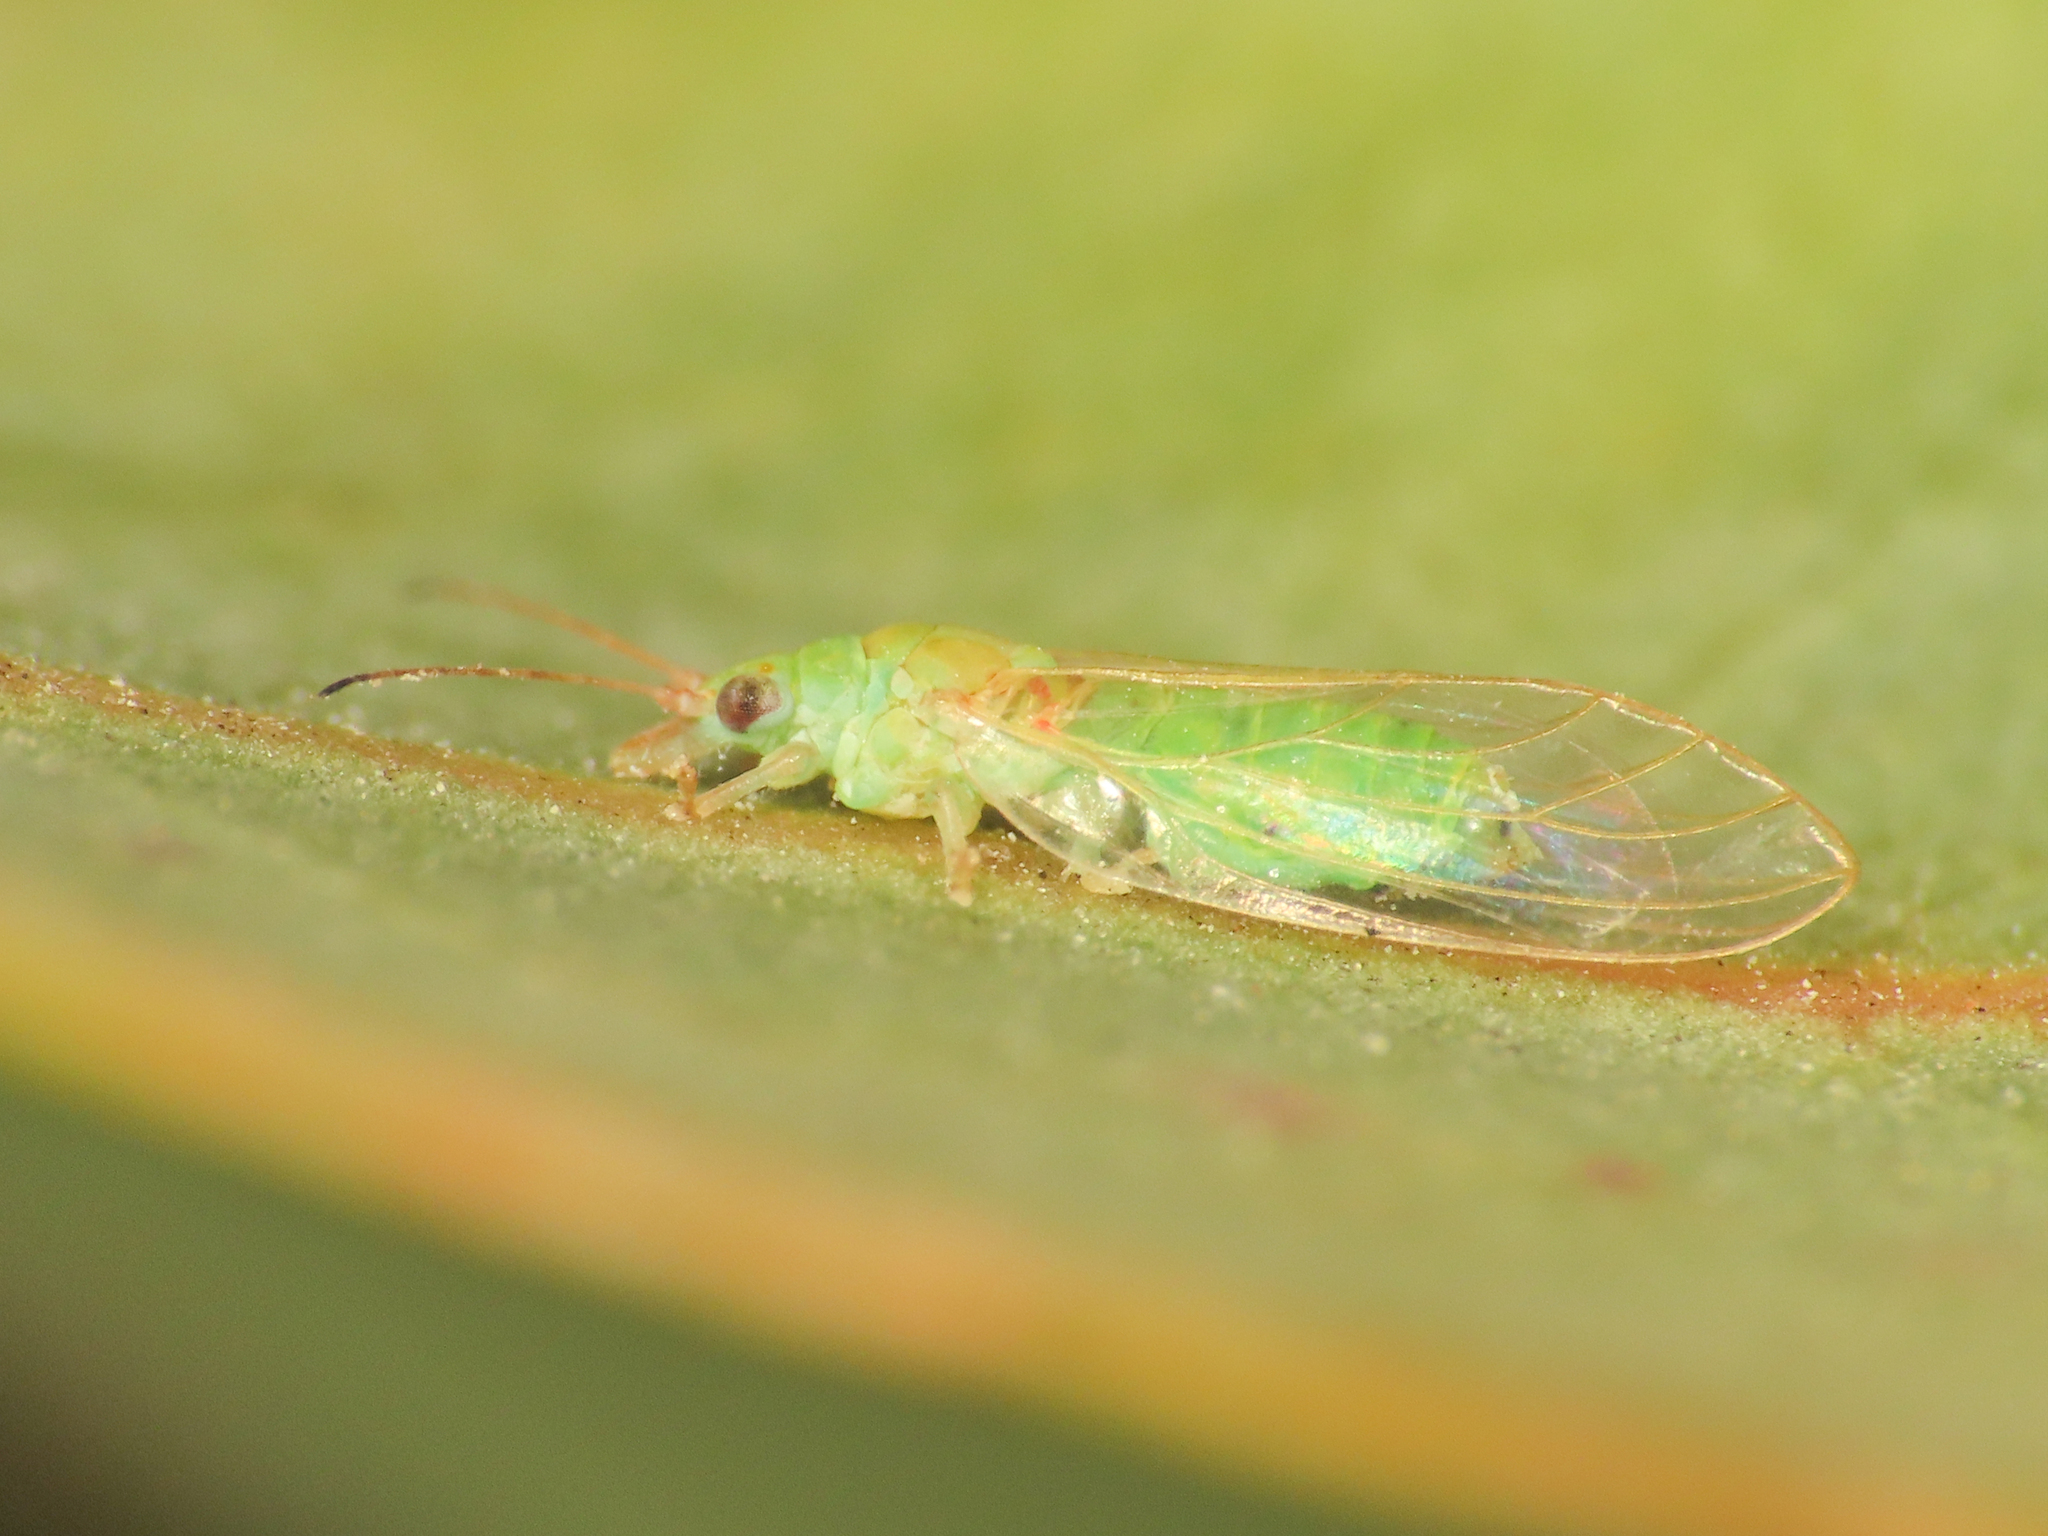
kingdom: Animalia
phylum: Arthropoda
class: Insecta
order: Hemiptera
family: Aphalaridae
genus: Glycaspis
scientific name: Glycaspis brimblecombei
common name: Red gum lerp psyllid
